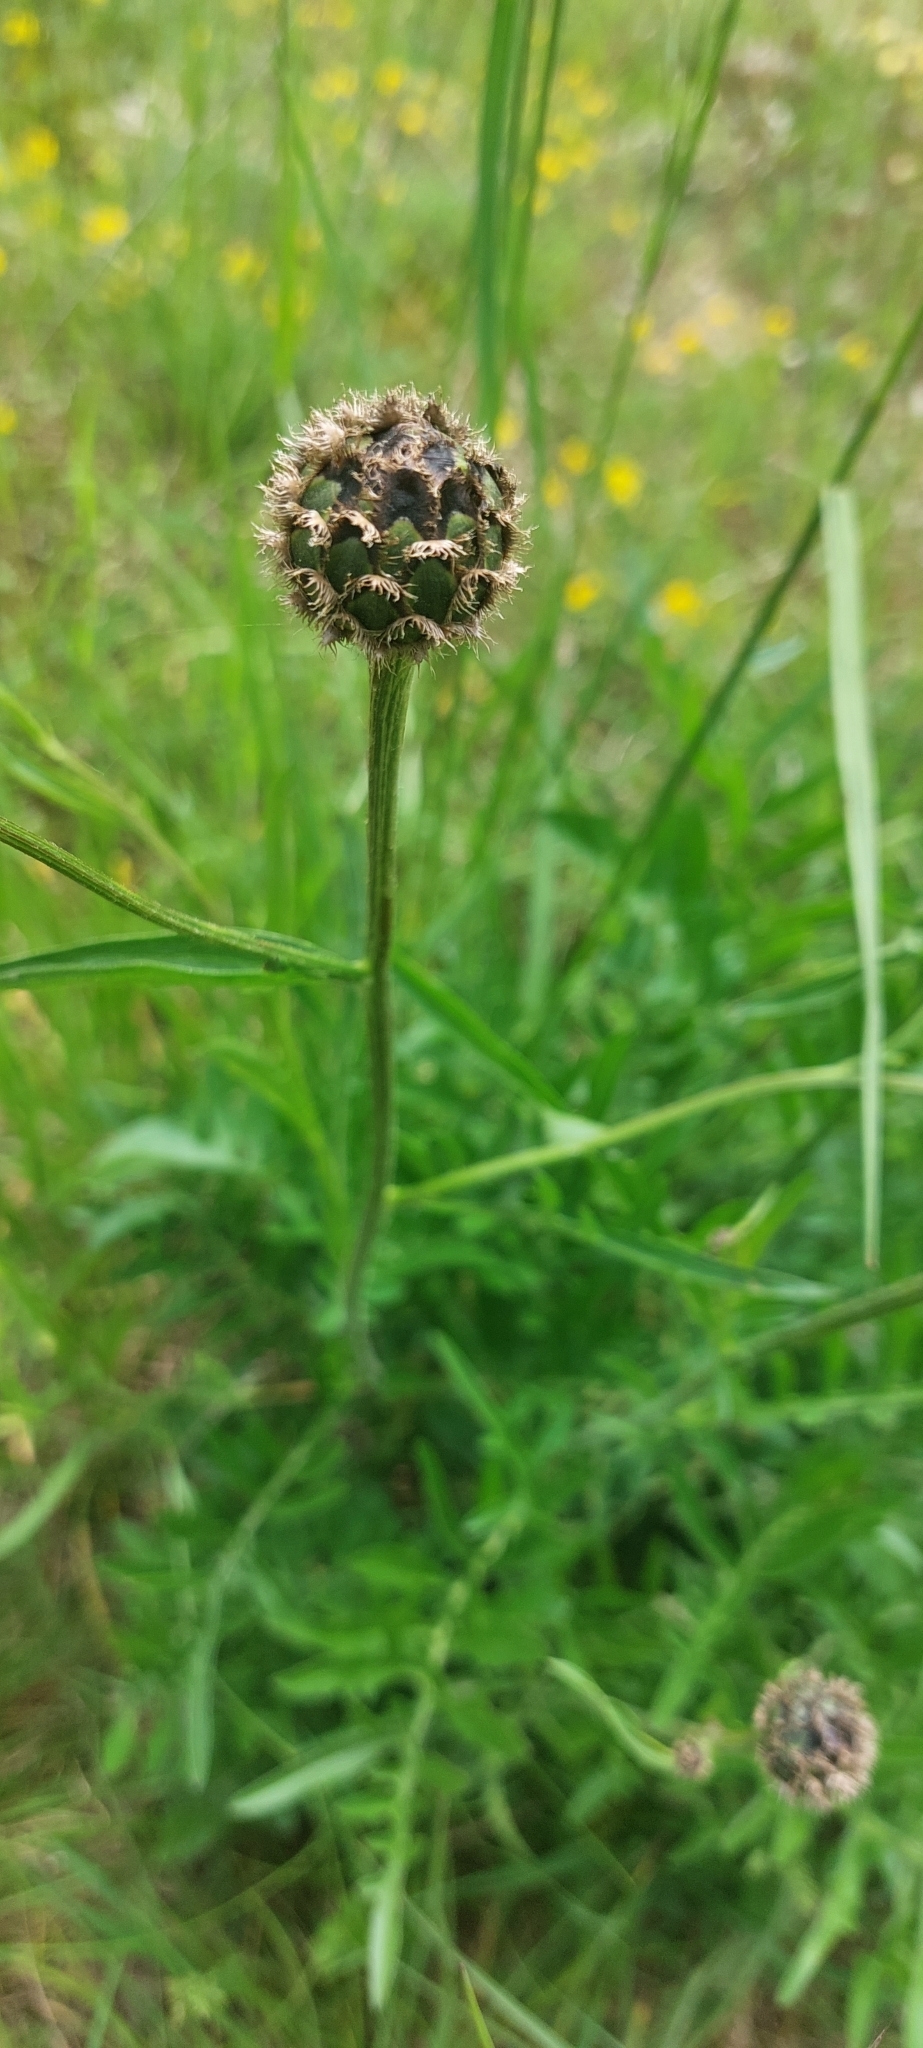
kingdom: Plantae
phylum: Tracheophyta
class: Magnoliopsida
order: Asterales
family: Asteraceae
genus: Centaurea
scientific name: Centaurea scabiosa
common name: Greater knapweed
